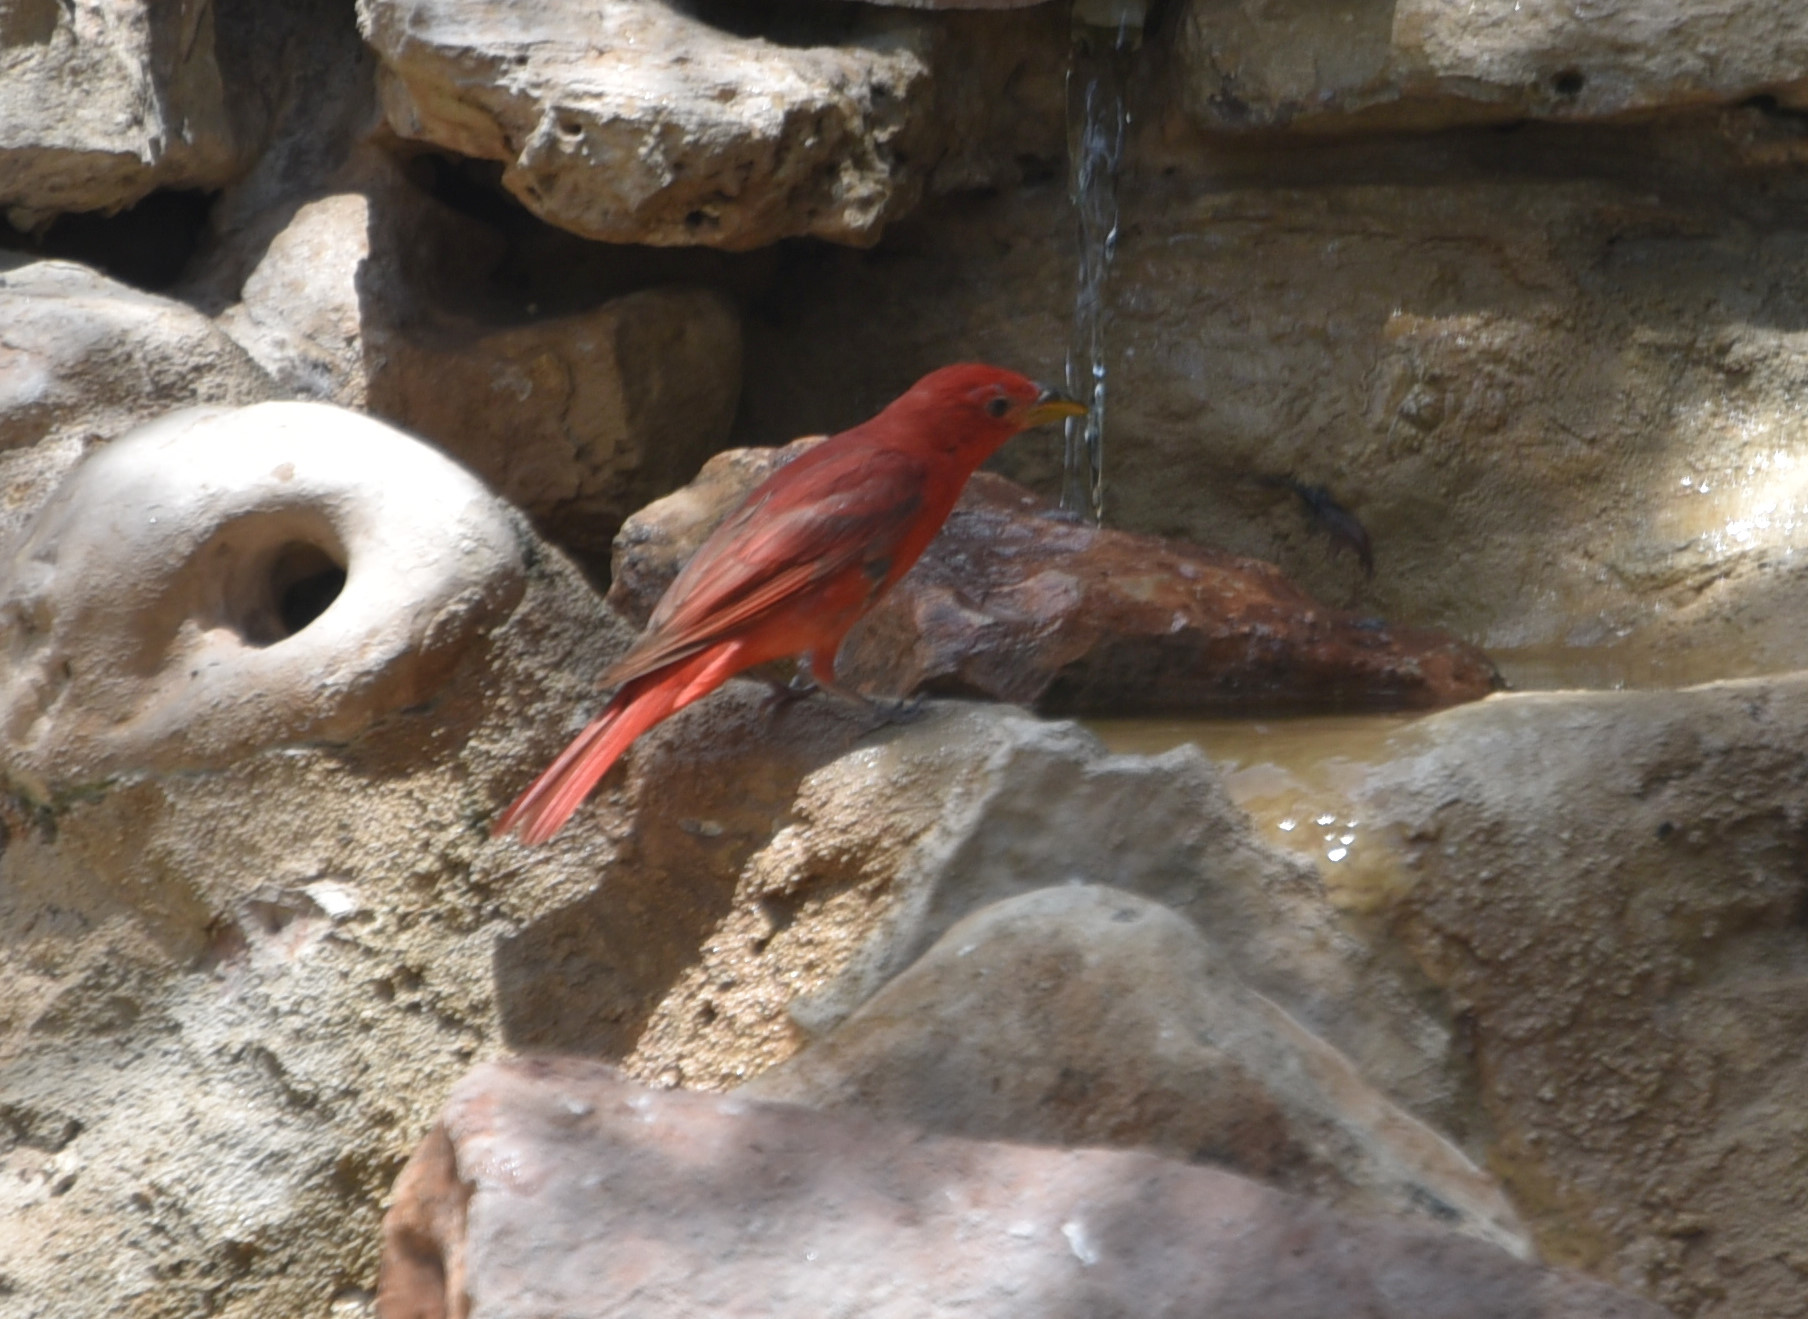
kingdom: Animalia
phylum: Chordata
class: Aves
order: Passeriformes
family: Cardinalidae
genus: Piranga
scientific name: Piranga rubra
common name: Summer tanager
